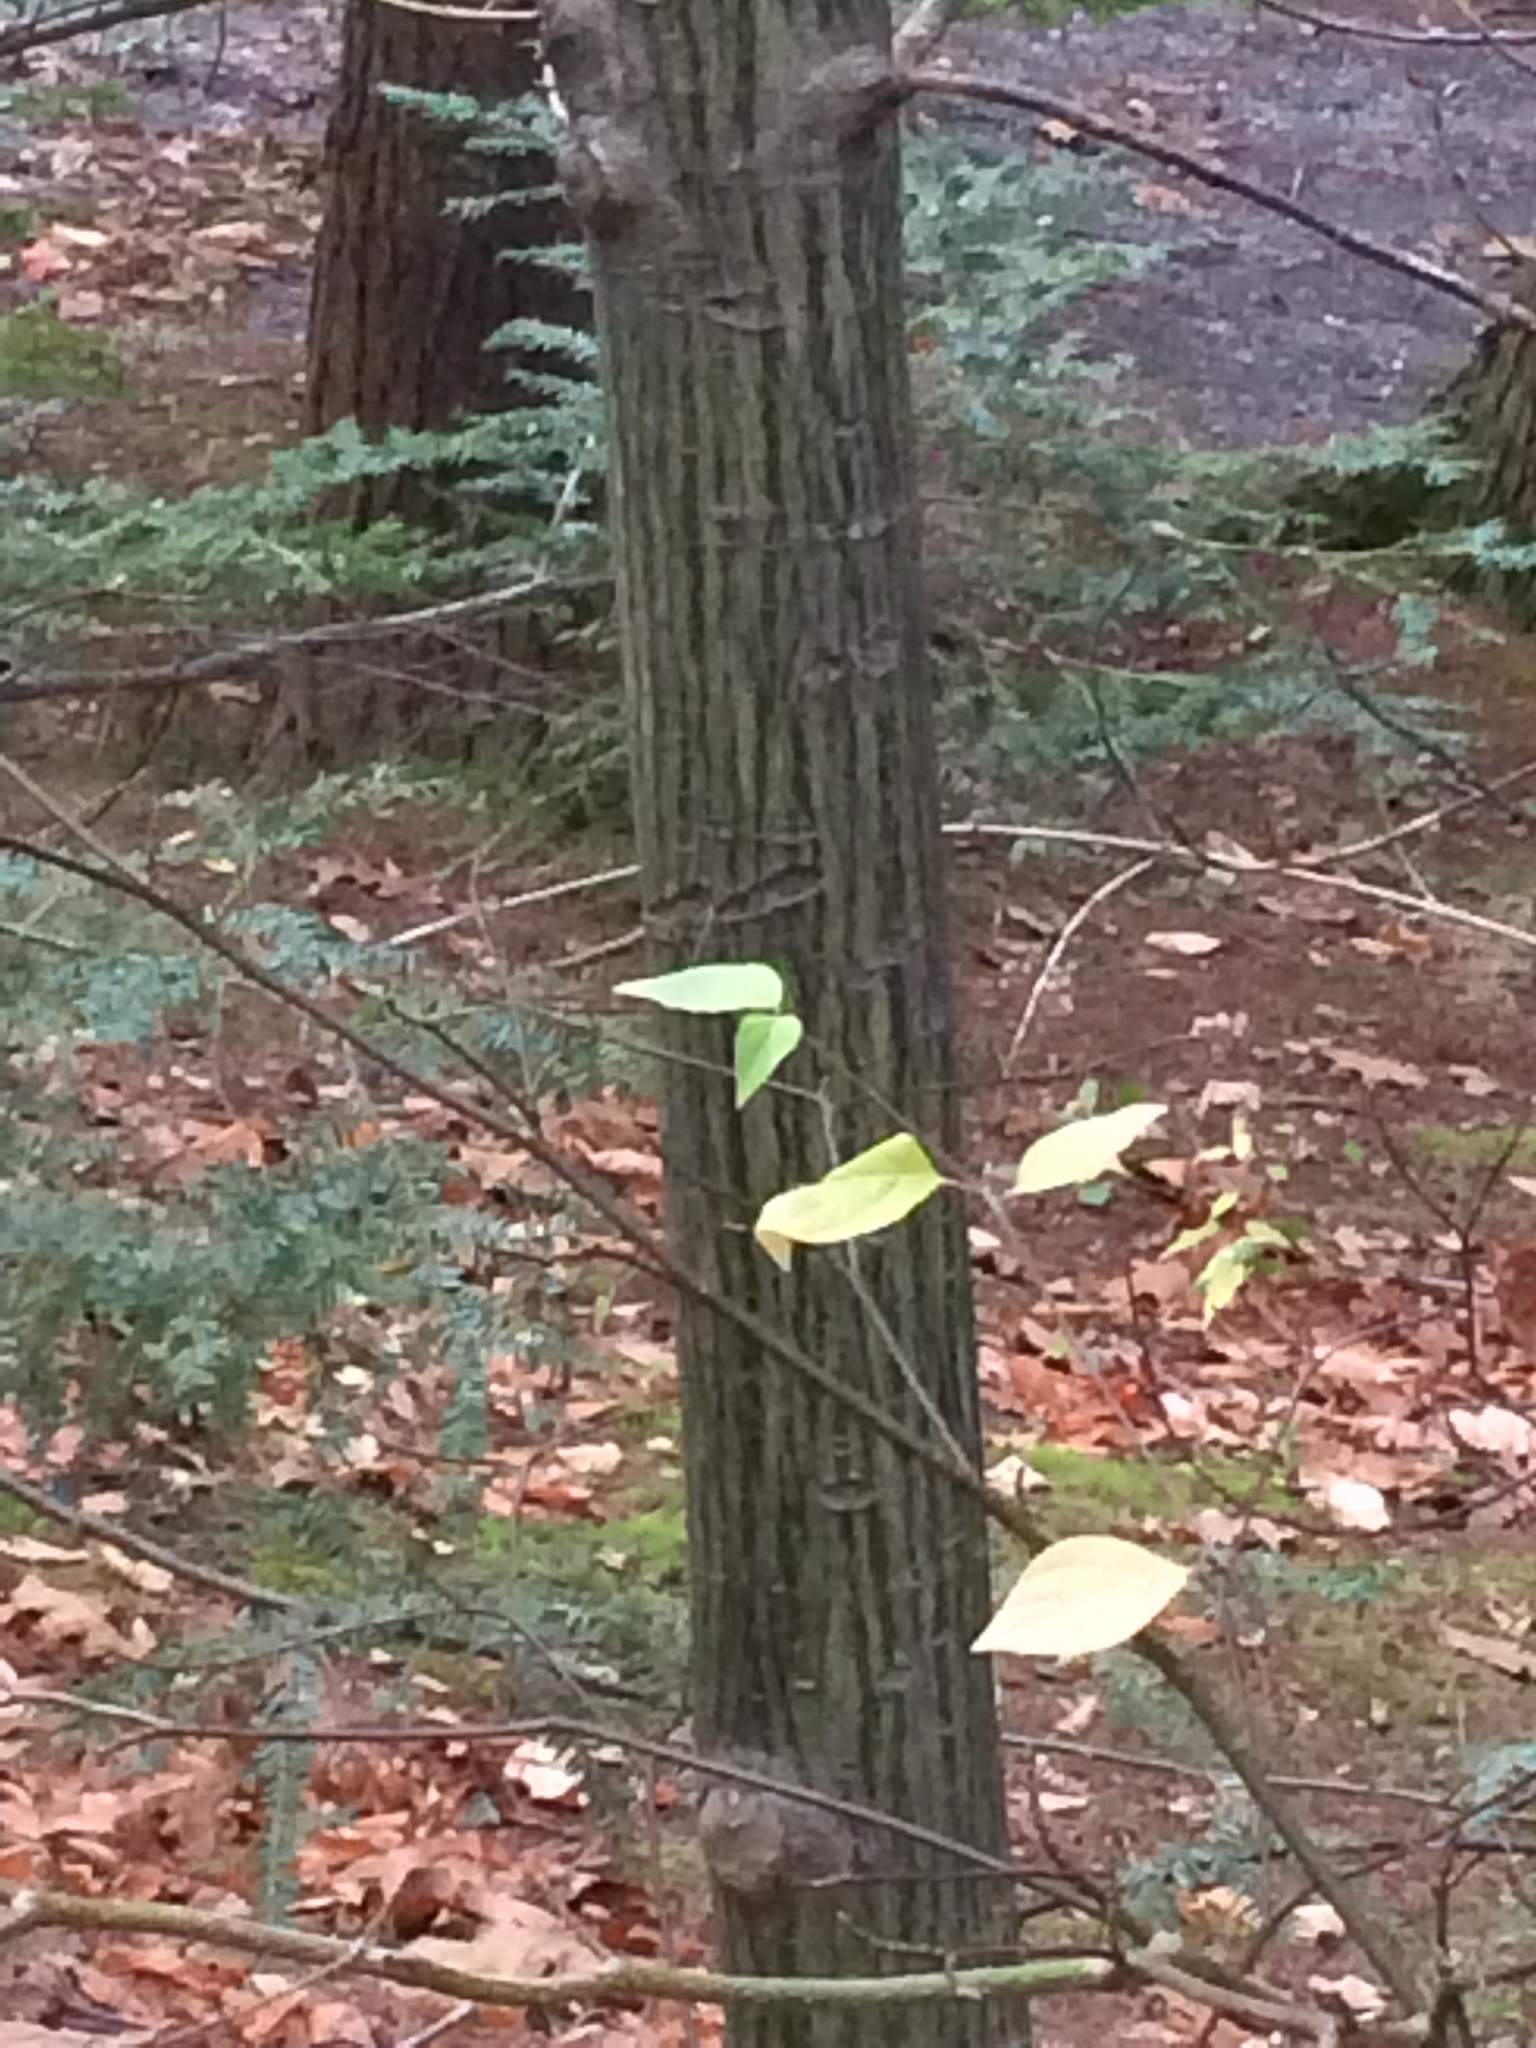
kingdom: Plantae
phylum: Tracheophyta
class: Magnoliopsida
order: Sapindales
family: Sapindaceae
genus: Acer
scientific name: Acer pensylvanicum
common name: Moosewood
